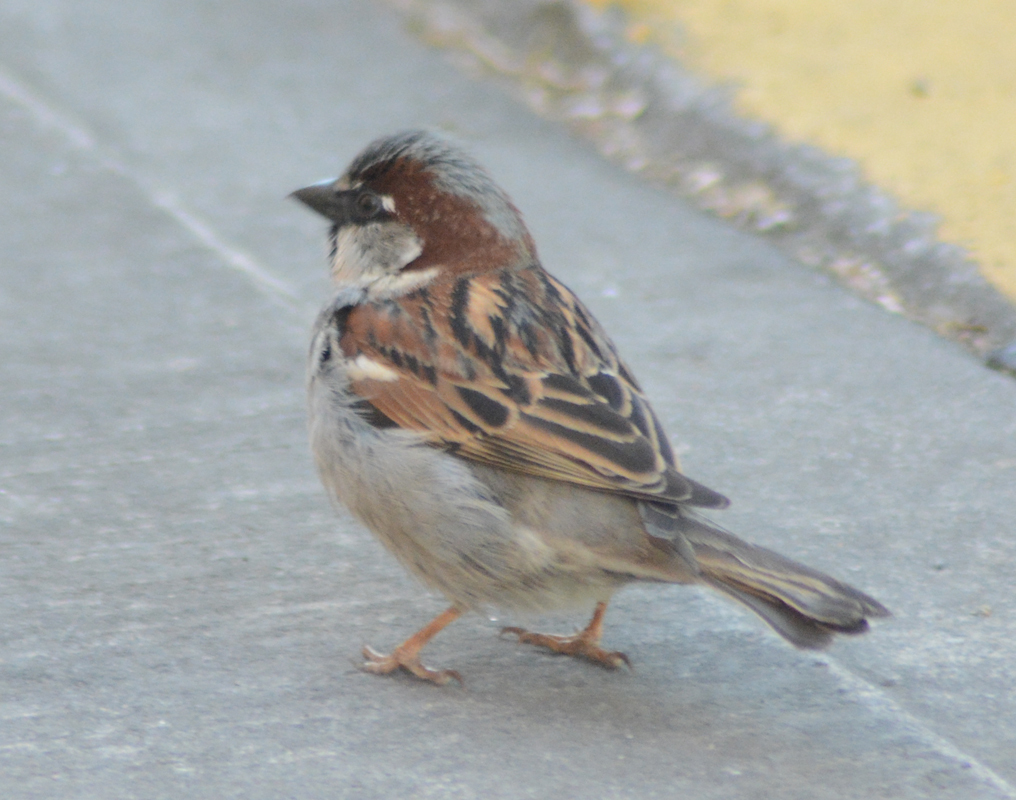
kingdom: Animalia
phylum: Chordata
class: Aves
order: Passeriformes
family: Passeridae
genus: Passer
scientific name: Passer domesticus
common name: House sparrow
